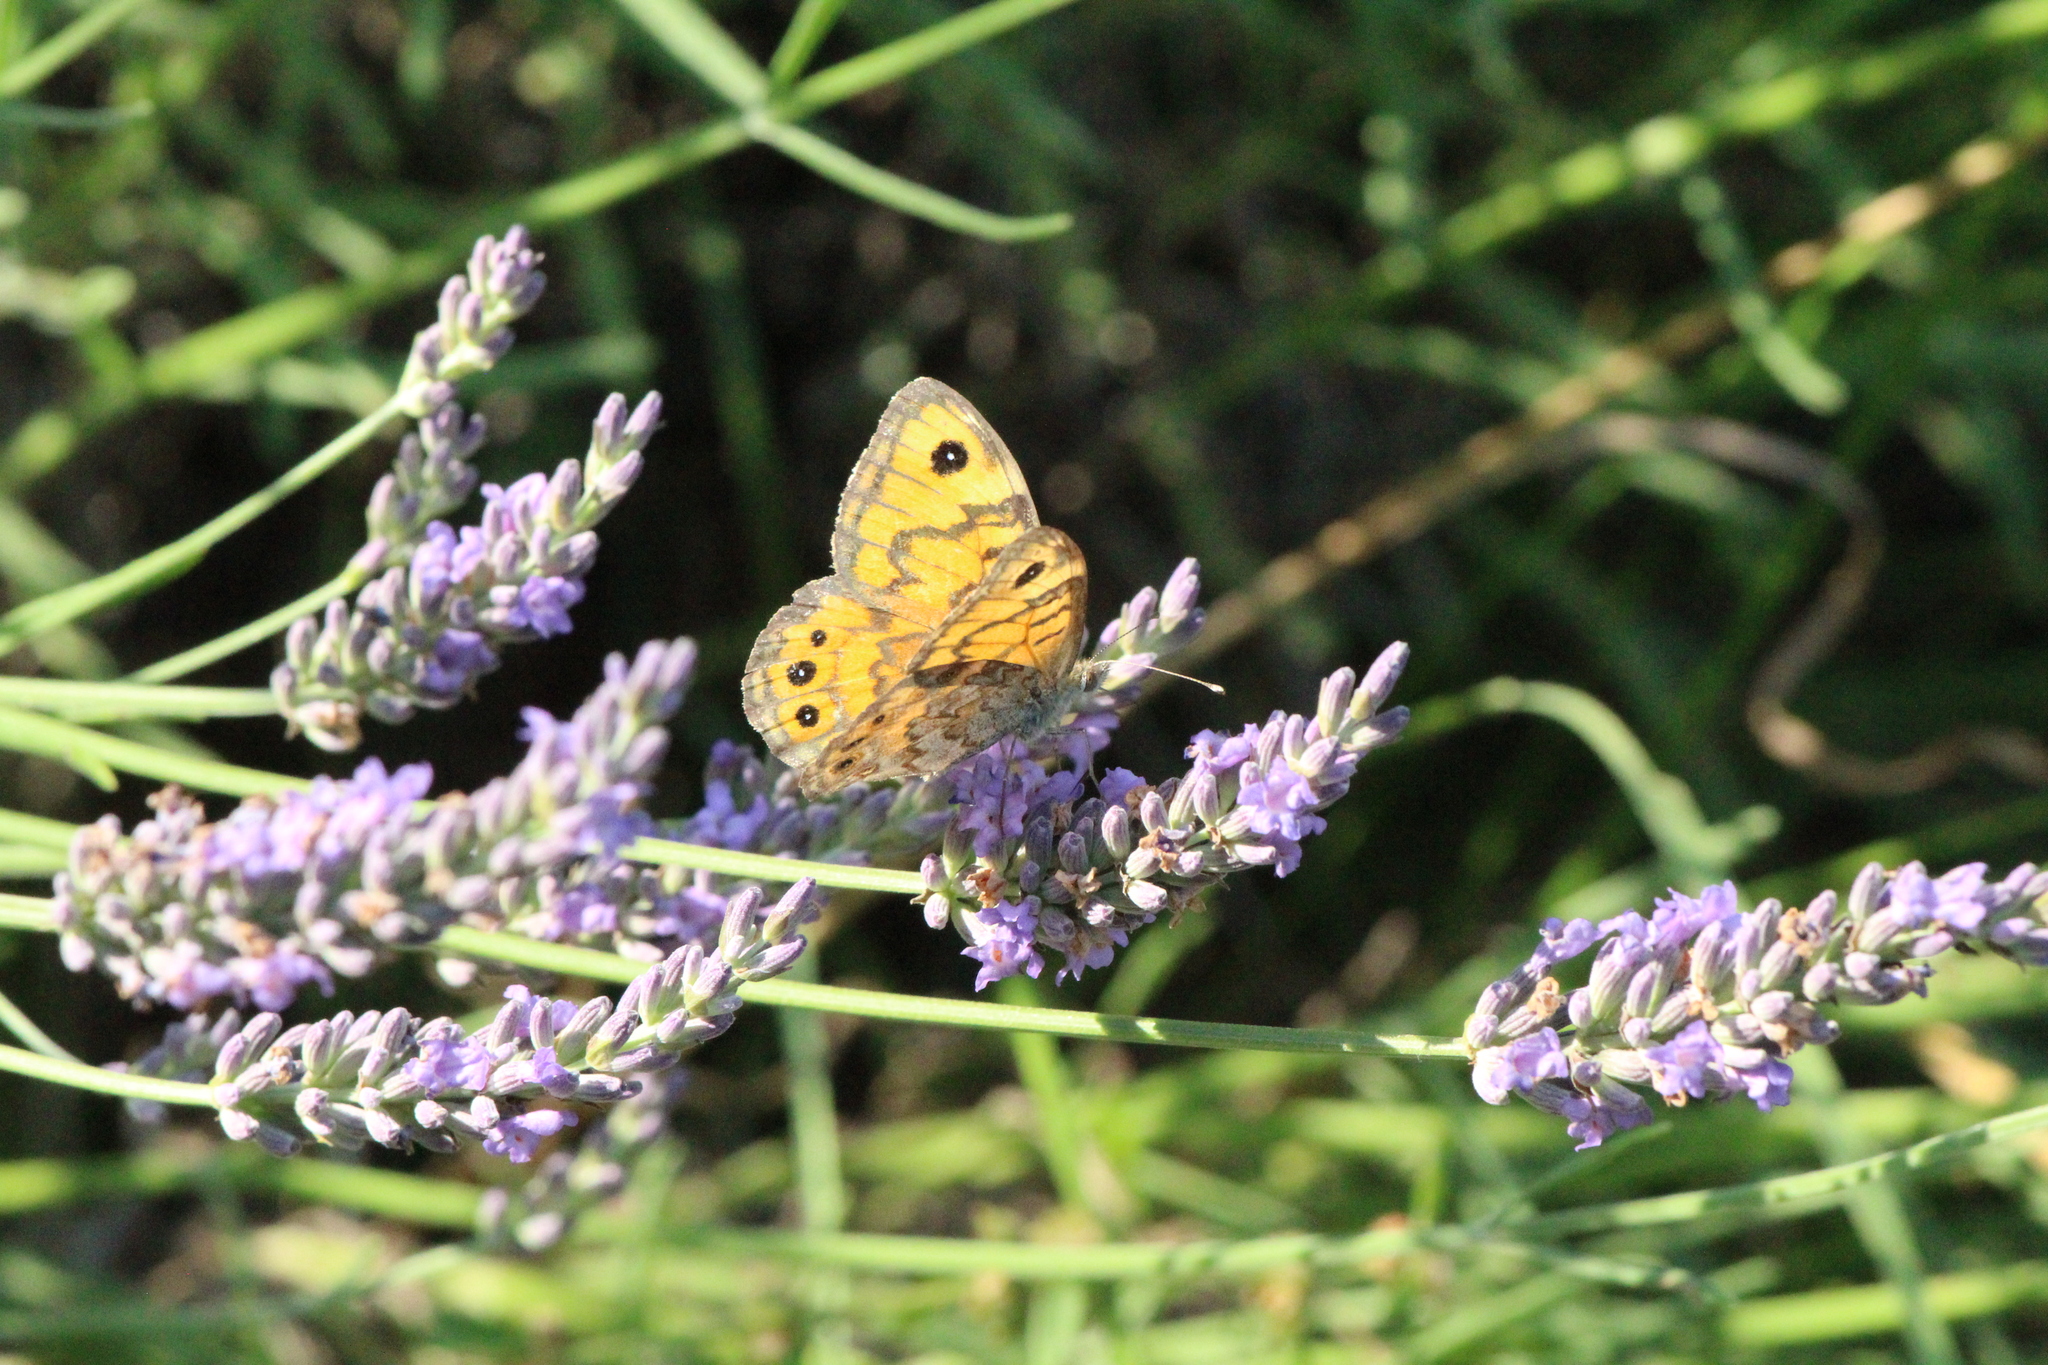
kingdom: Animalia
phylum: Arthropoda
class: Insecta
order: Lepidoptera
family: Nymphalidae
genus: Pararge
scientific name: Pararge Lasiommata megera
